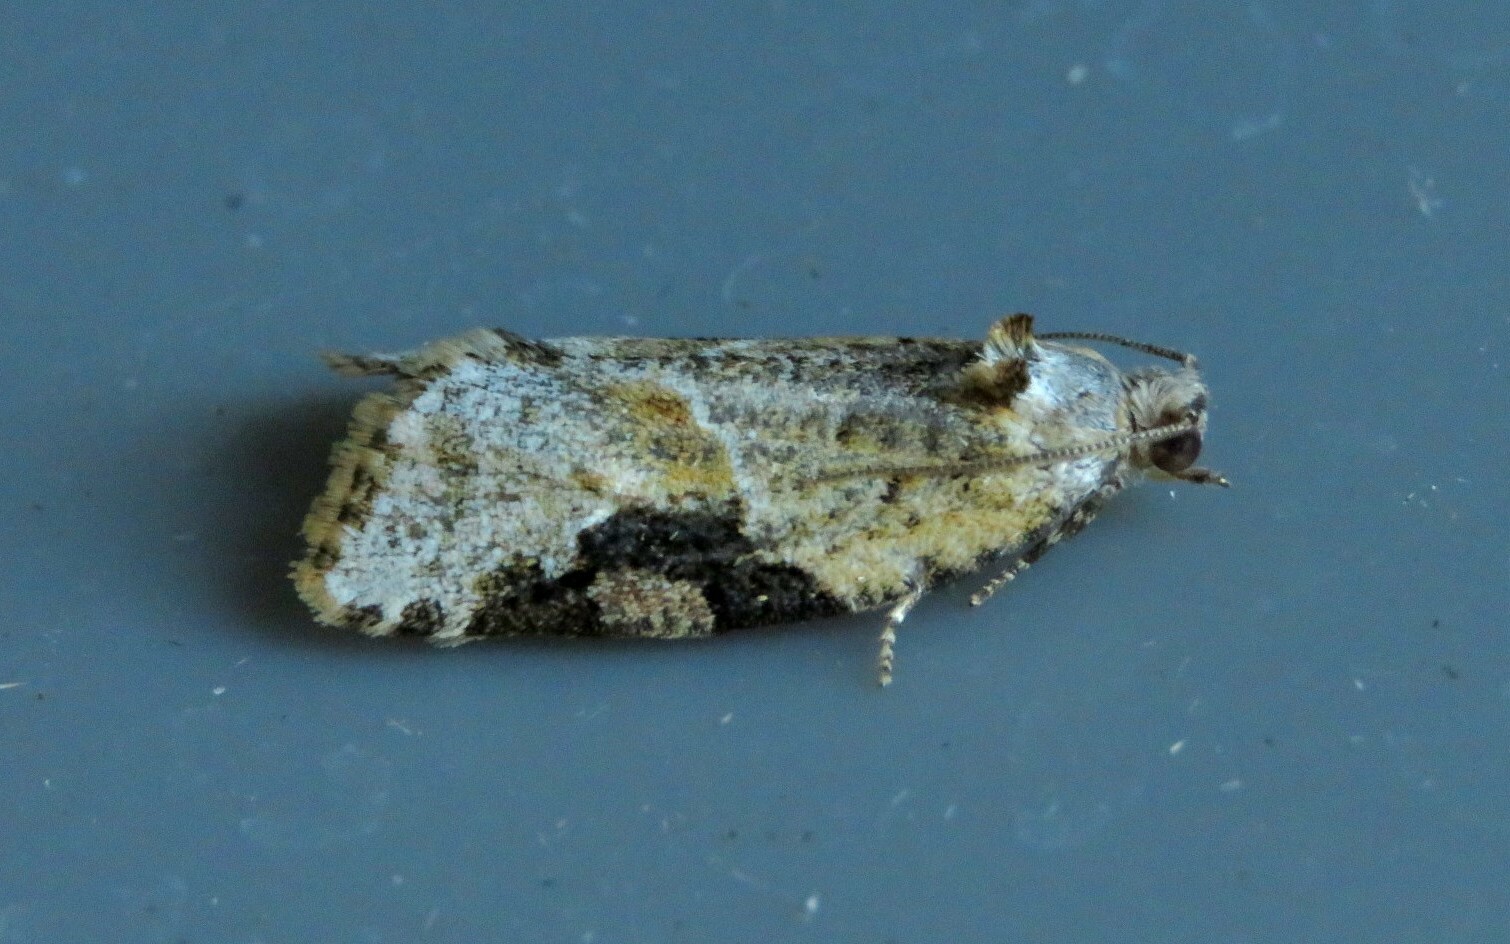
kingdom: Animalia
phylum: Arthropoda
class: Insecta
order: Lepidoptera
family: Tortricidae
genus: Argyrotaenia
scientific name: Argyrotaenia mariana
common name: Gray-banded leafroller moth
